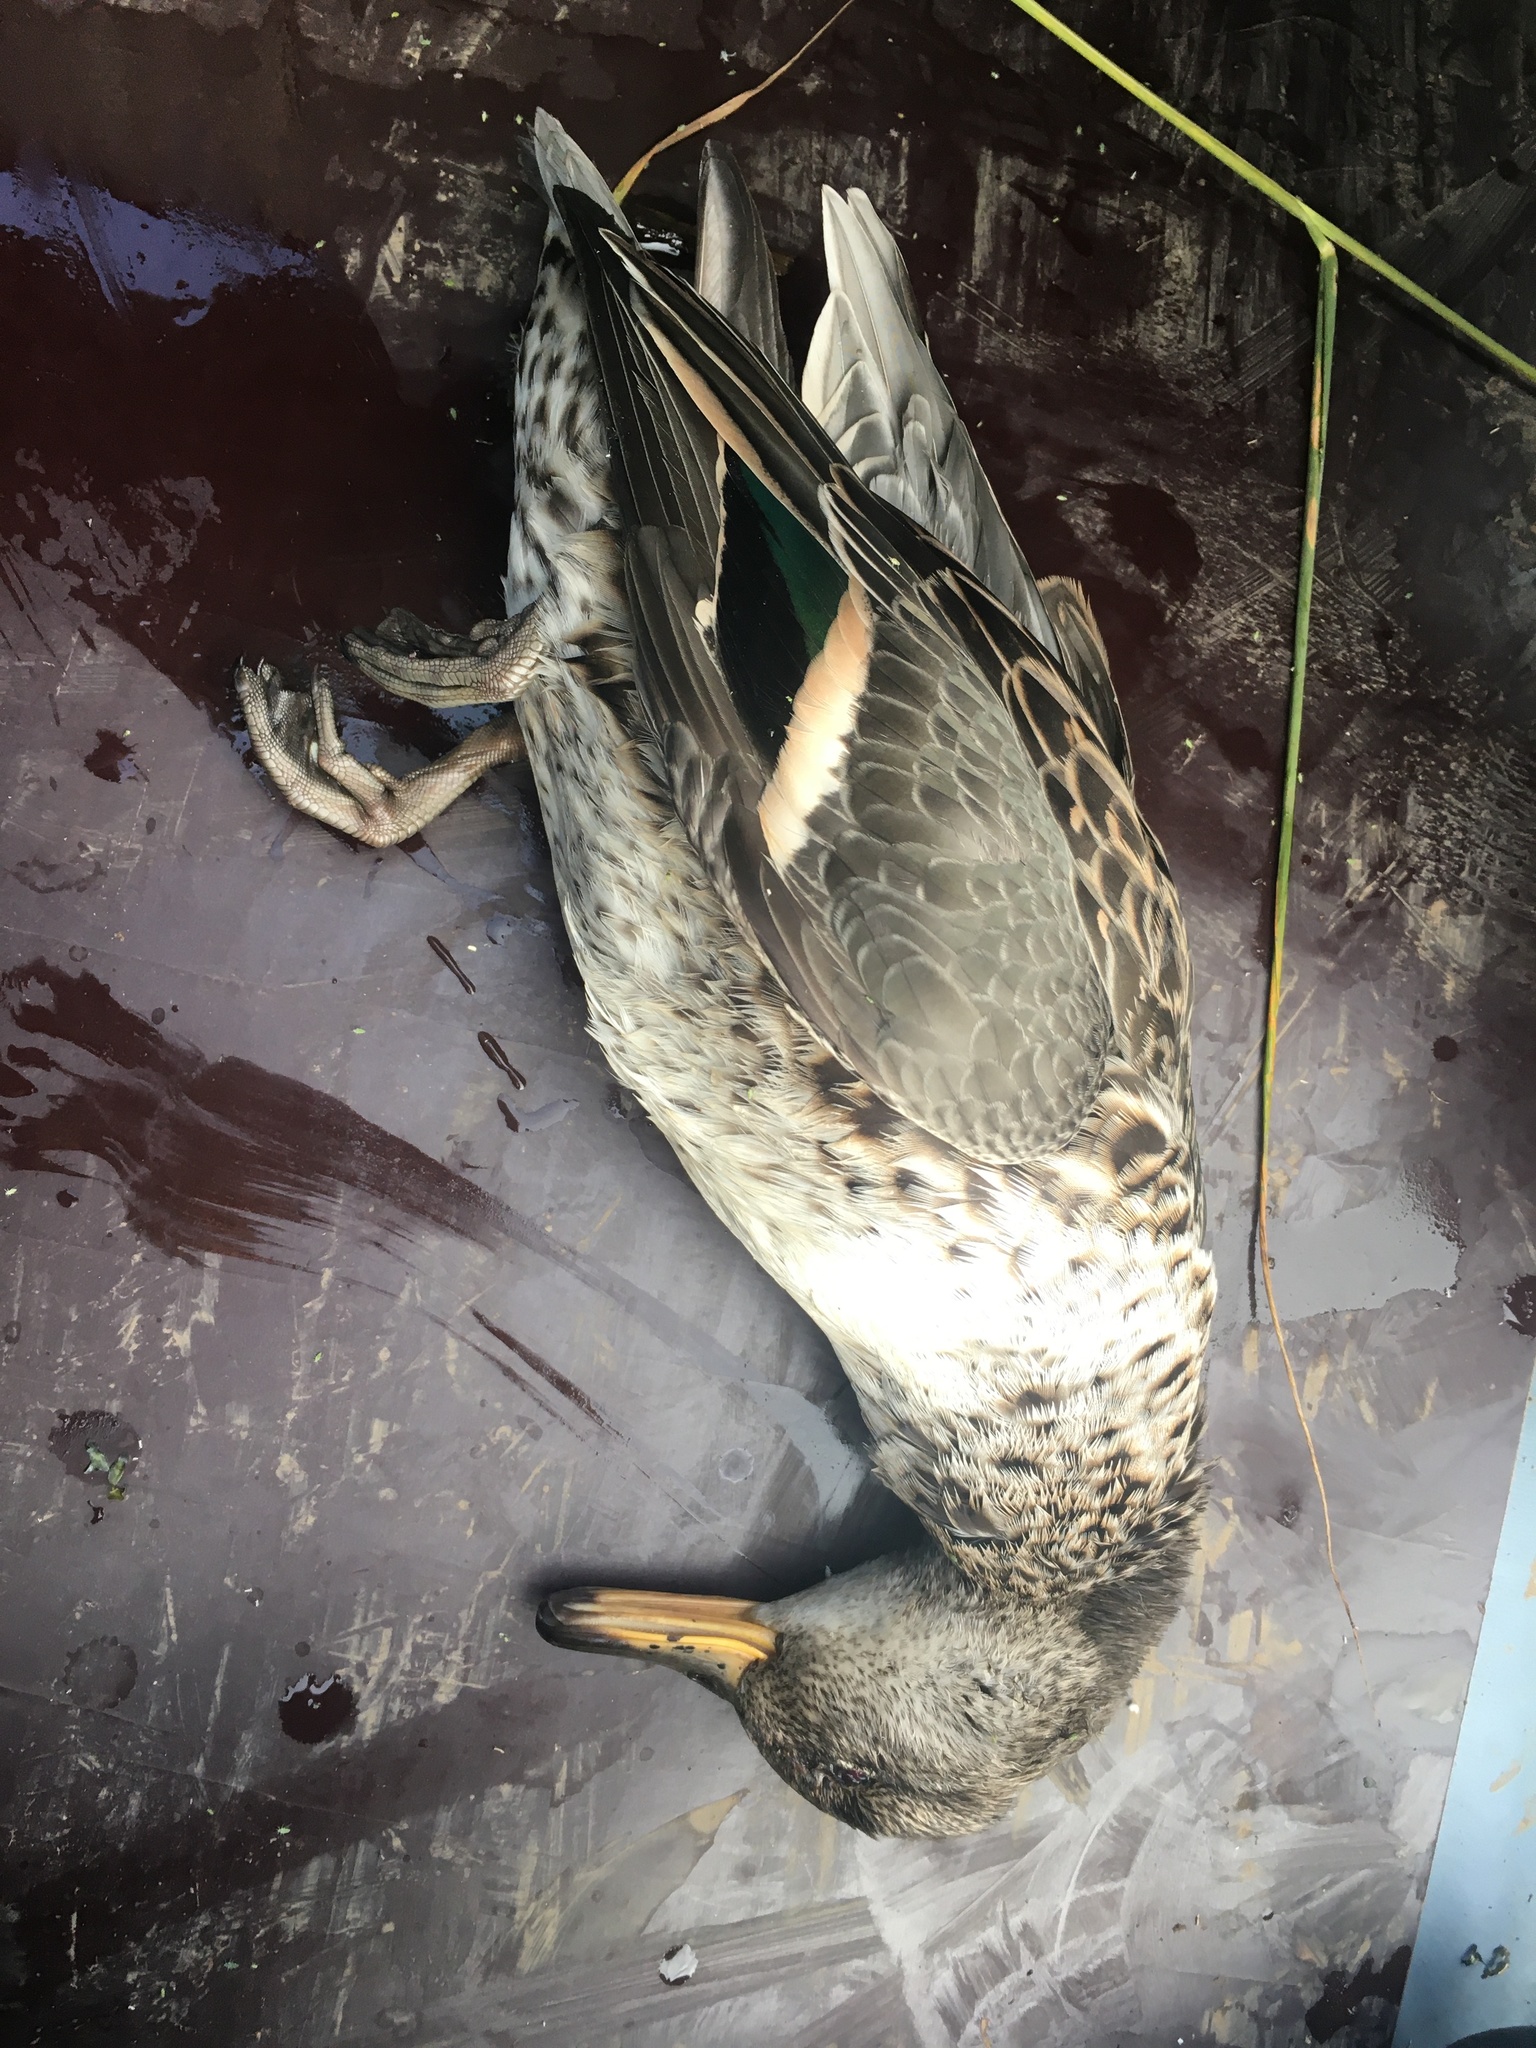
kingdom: Animalia
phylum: Chordata
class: Aves
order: Anseriformes
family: Anatidae
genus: Anas
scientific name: Anas crecca
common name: Eurasian teal
